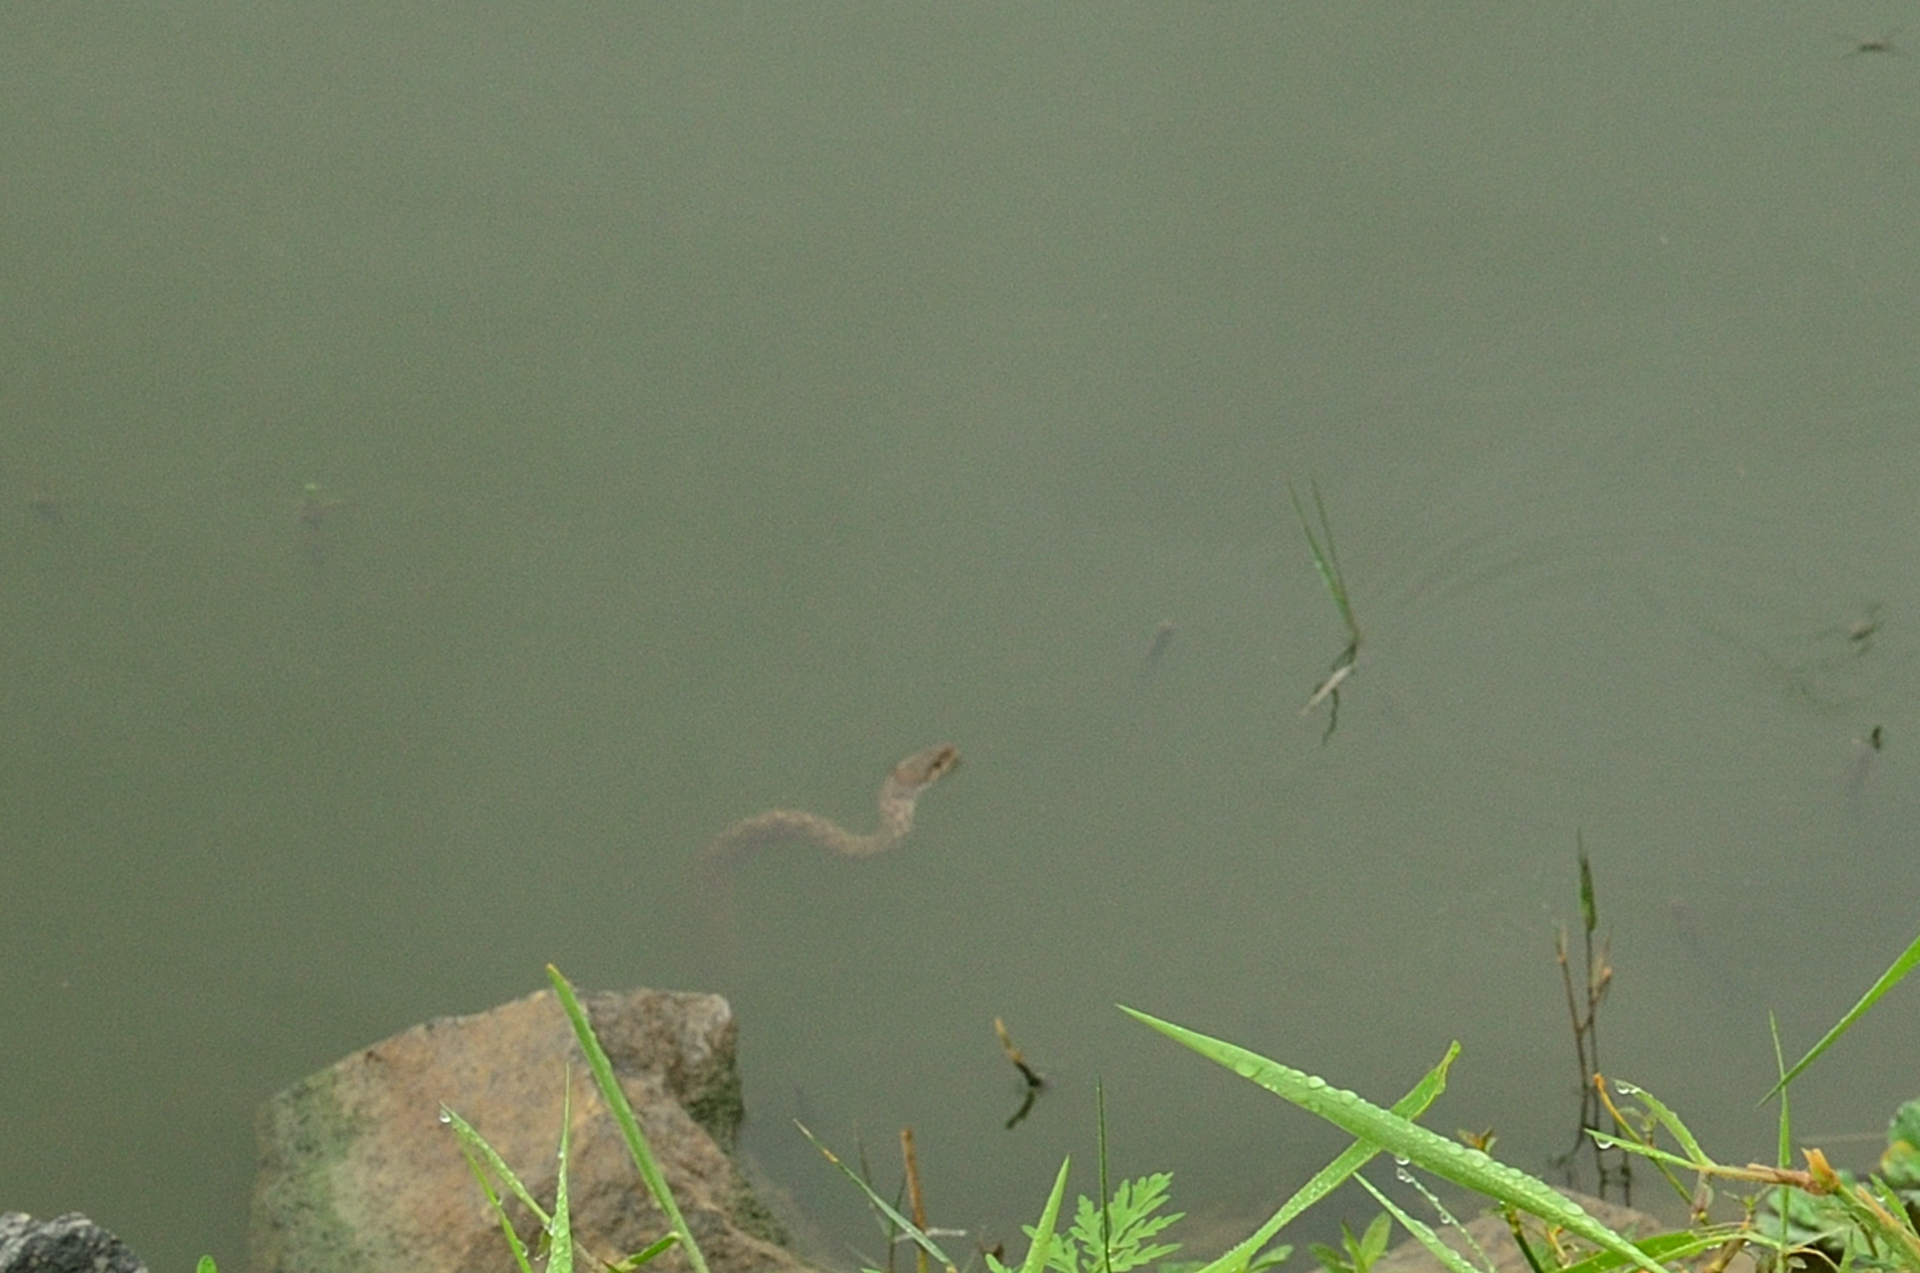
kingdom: Animalia
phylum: Chordata
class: Squamata
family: Colubridae
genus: Fowlea
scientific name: Fowlea piscator
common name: Asiatic water snake
